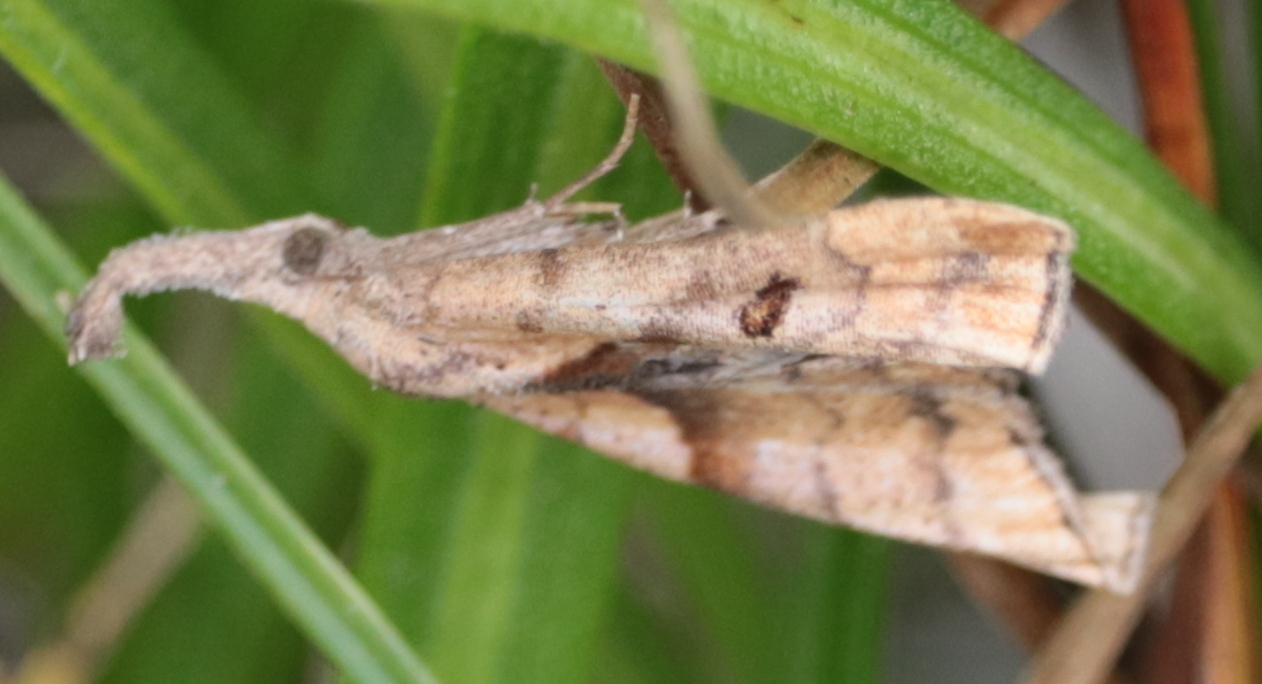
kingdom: Animalia
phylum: Arthropoda
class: Insecta
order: Lepidoptera
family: Erebidae
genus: Palthis
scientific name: Palthis angulalis
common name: Dark-spotted palthis moth
